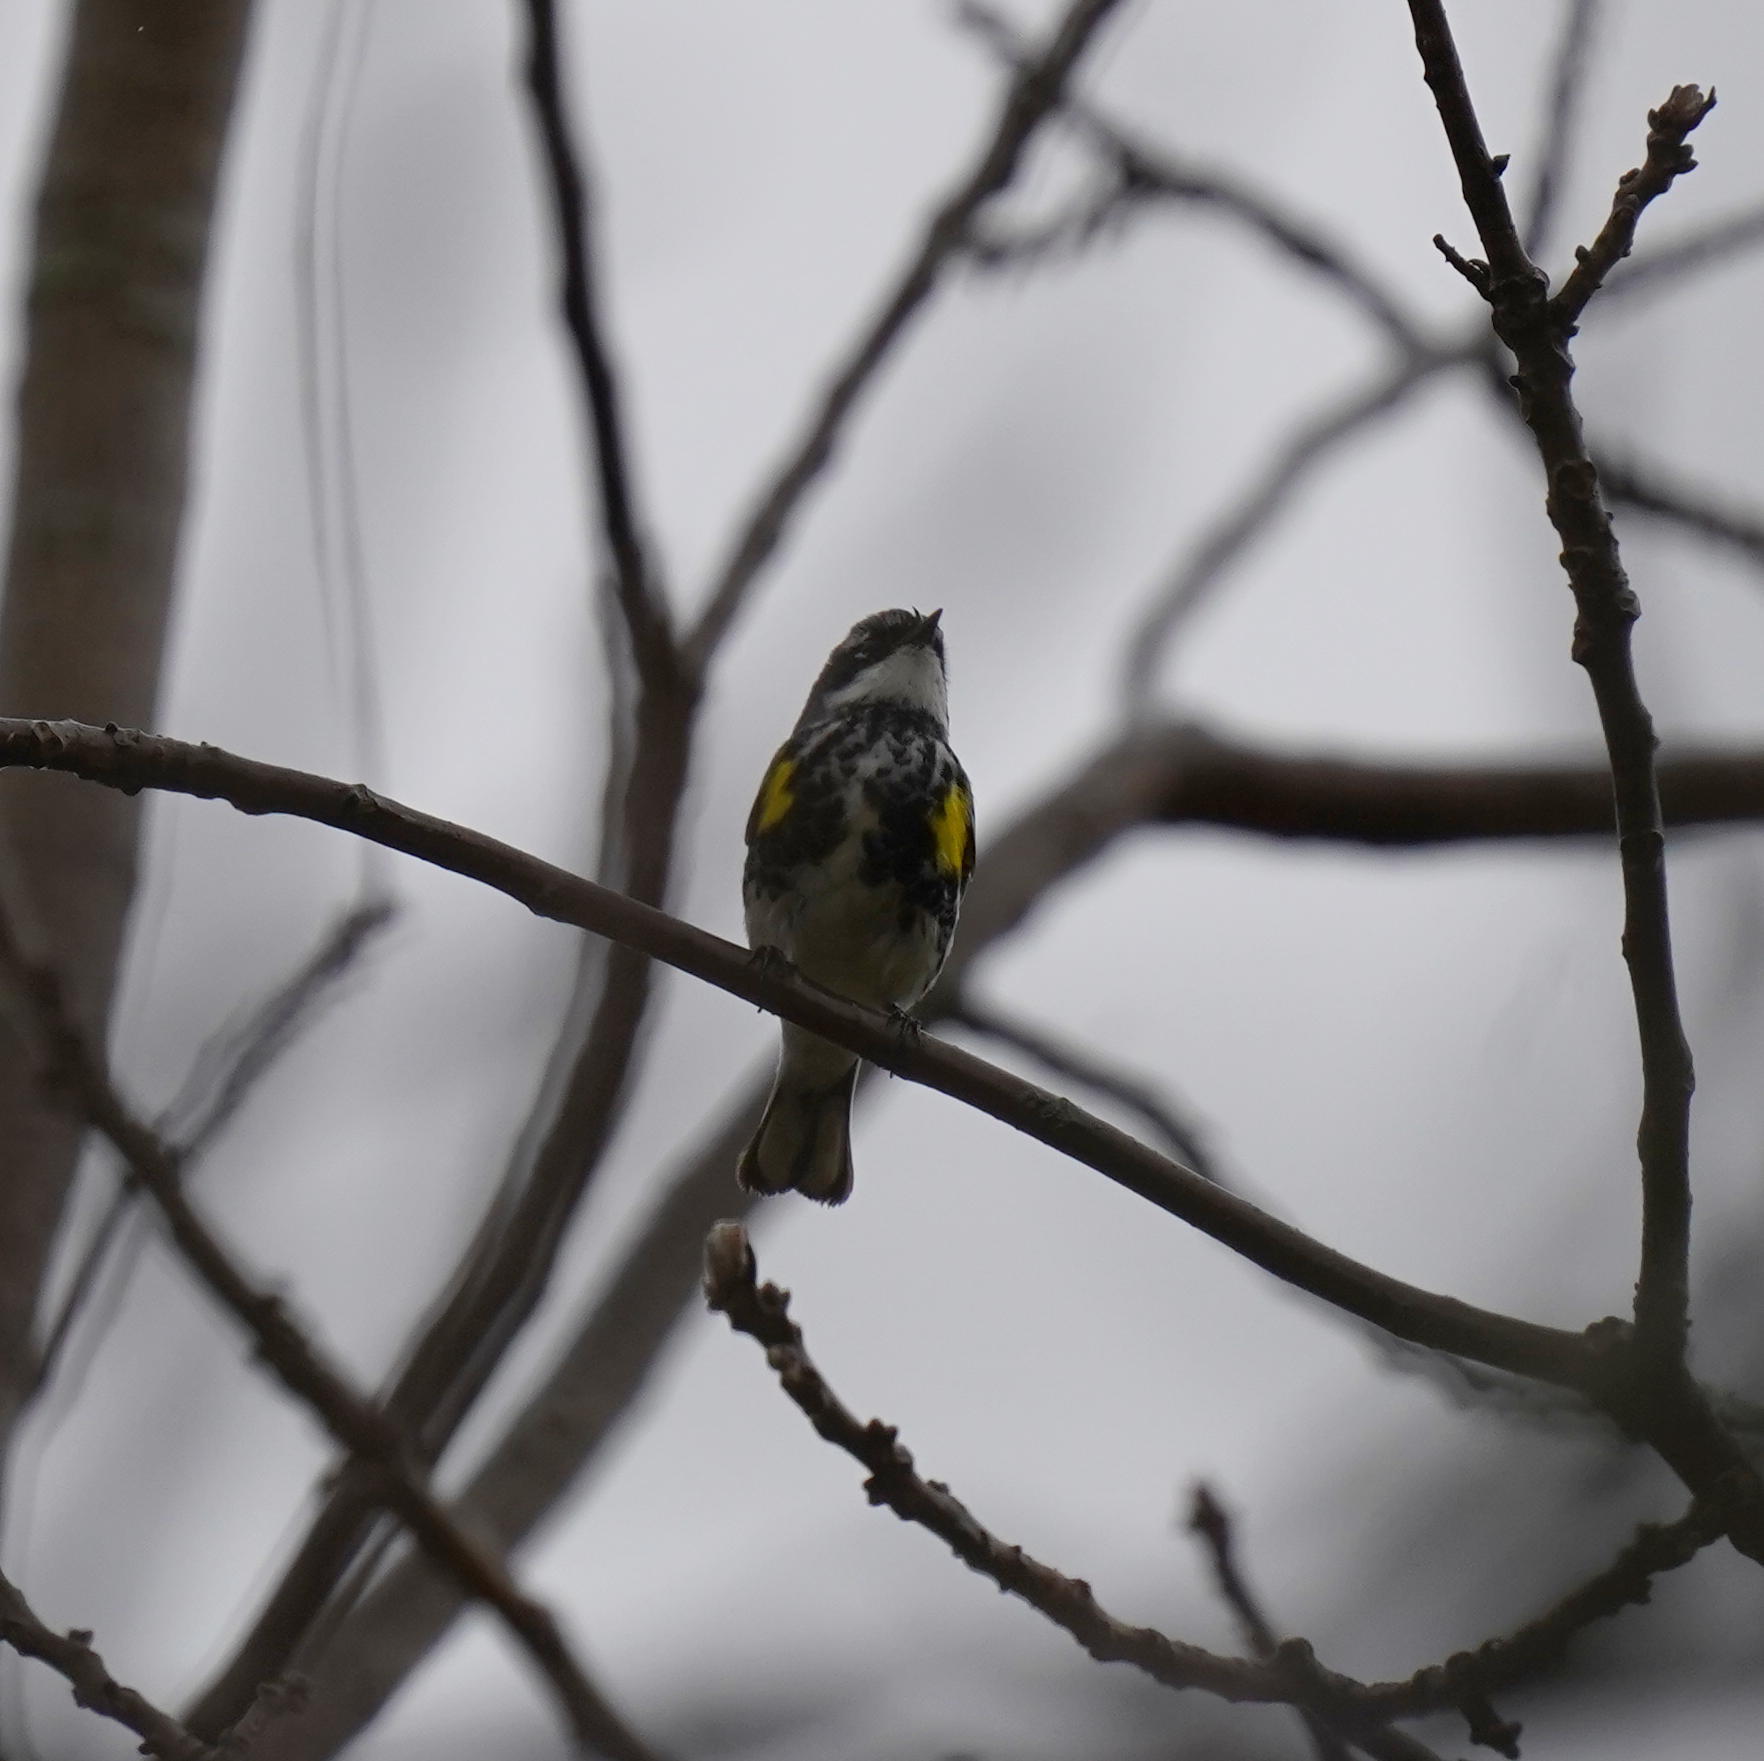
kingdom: Animalia
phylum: Chordata
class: Aves
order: Passeriformes
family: Parulidae
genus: Setophaga
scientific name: Setophaga coronata
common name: Myrtle warbler
